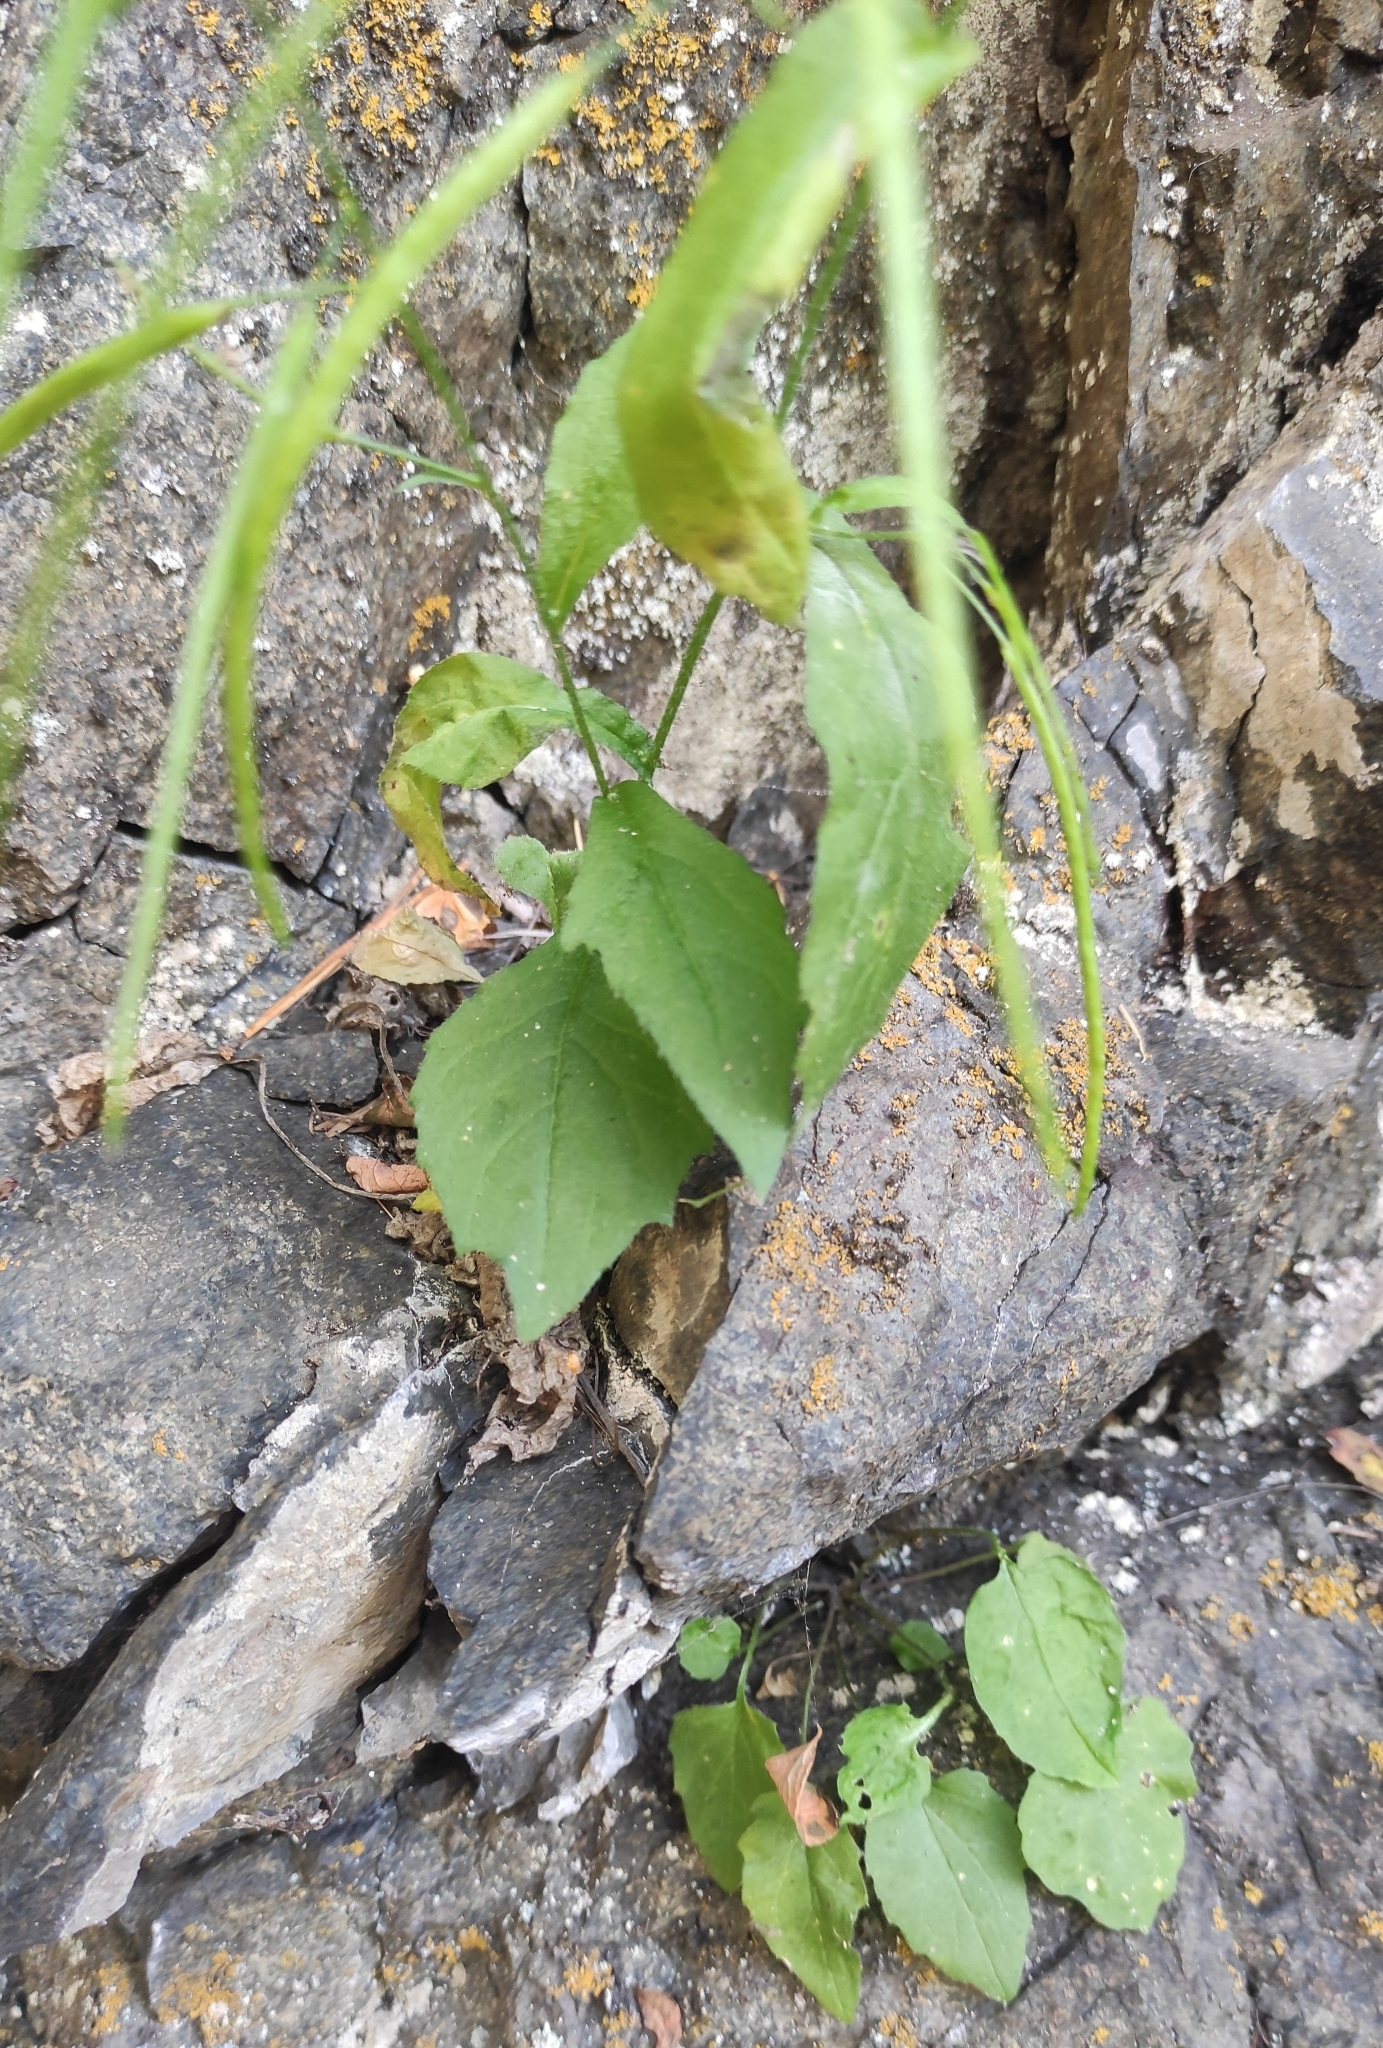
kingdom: Plantae
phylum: Tracheophyta
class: Magnoliopsida
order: Brassicales
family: Brassicaceae
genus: Catolobus
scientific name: Catolobus pendulus
